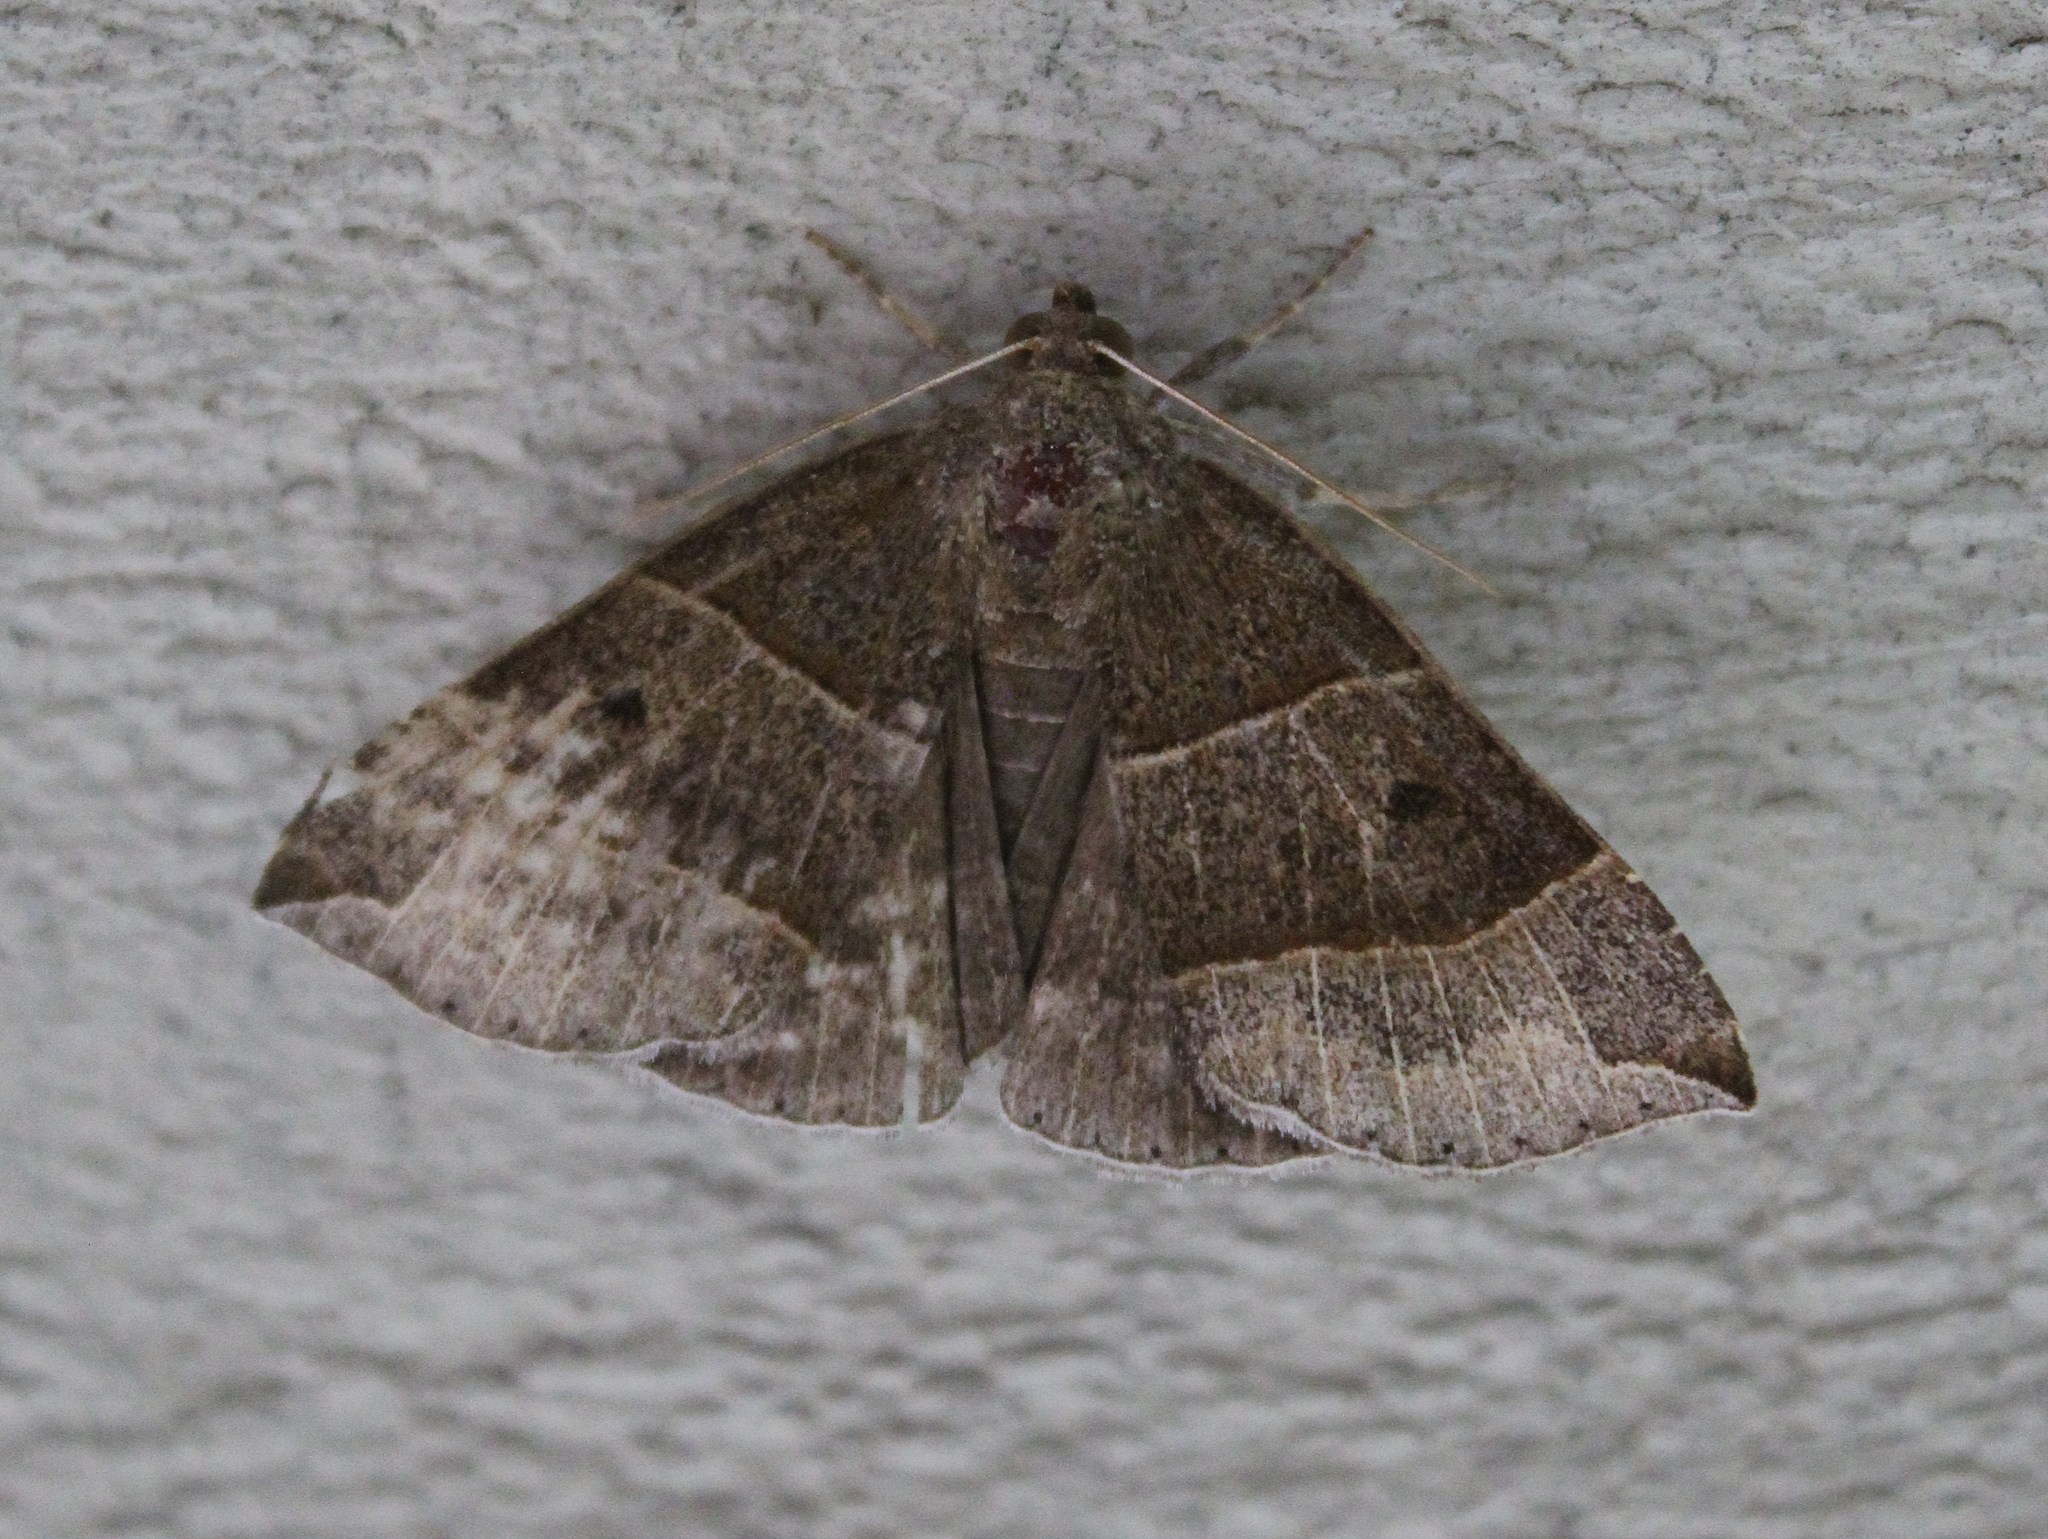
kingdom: Animalia
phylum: Arthropoda
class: Insecta
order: Lepidoptera
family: Erebidae
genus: Parallelia
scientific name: Parallelia bistriaris
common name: Maple looper moth
